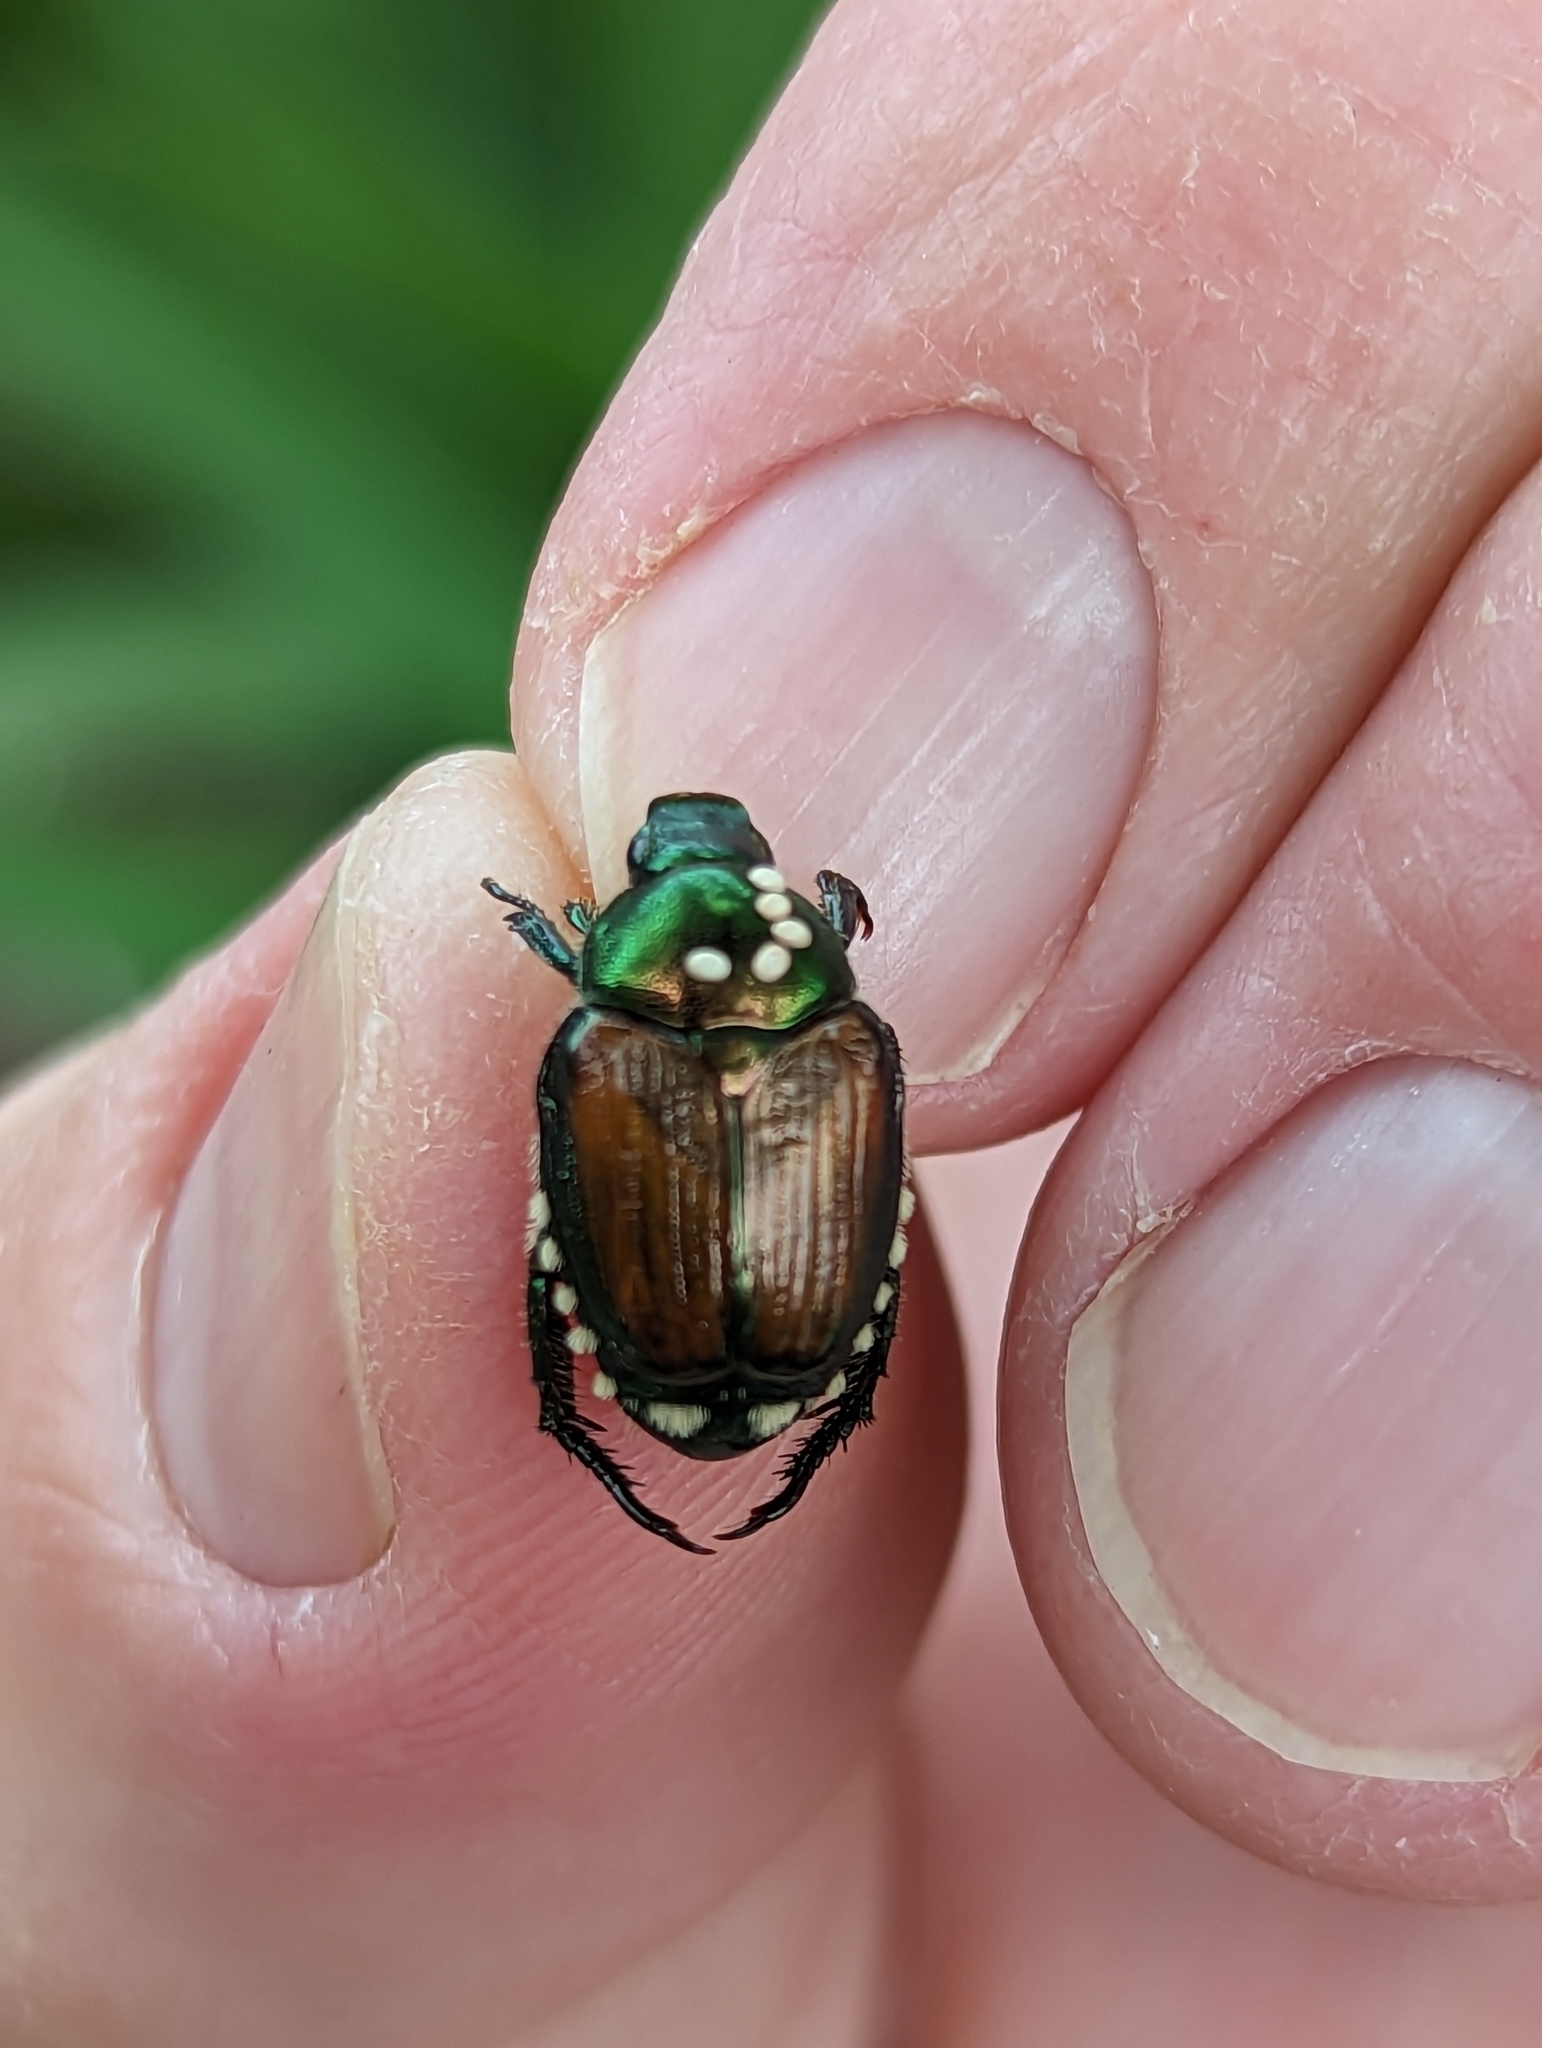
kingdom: Animalia
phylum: Arthropoda
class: Insecta
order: Coleoptera
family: Scarabaeidae
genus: Popillia
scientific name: Popillia japonica
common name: Japanese beetle
